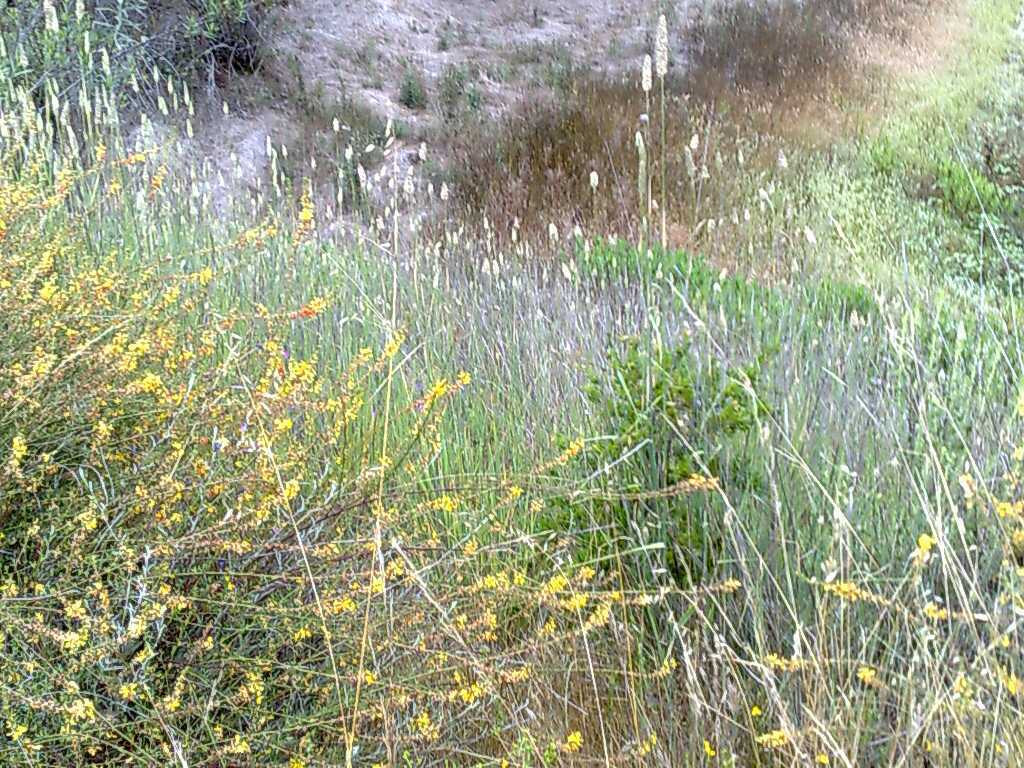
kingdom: Plantae
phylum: Tracheophyta
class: Magnoliopsida
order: Fabales
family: Fabaceae
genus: Acmispon
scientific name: Acmispon glaber
